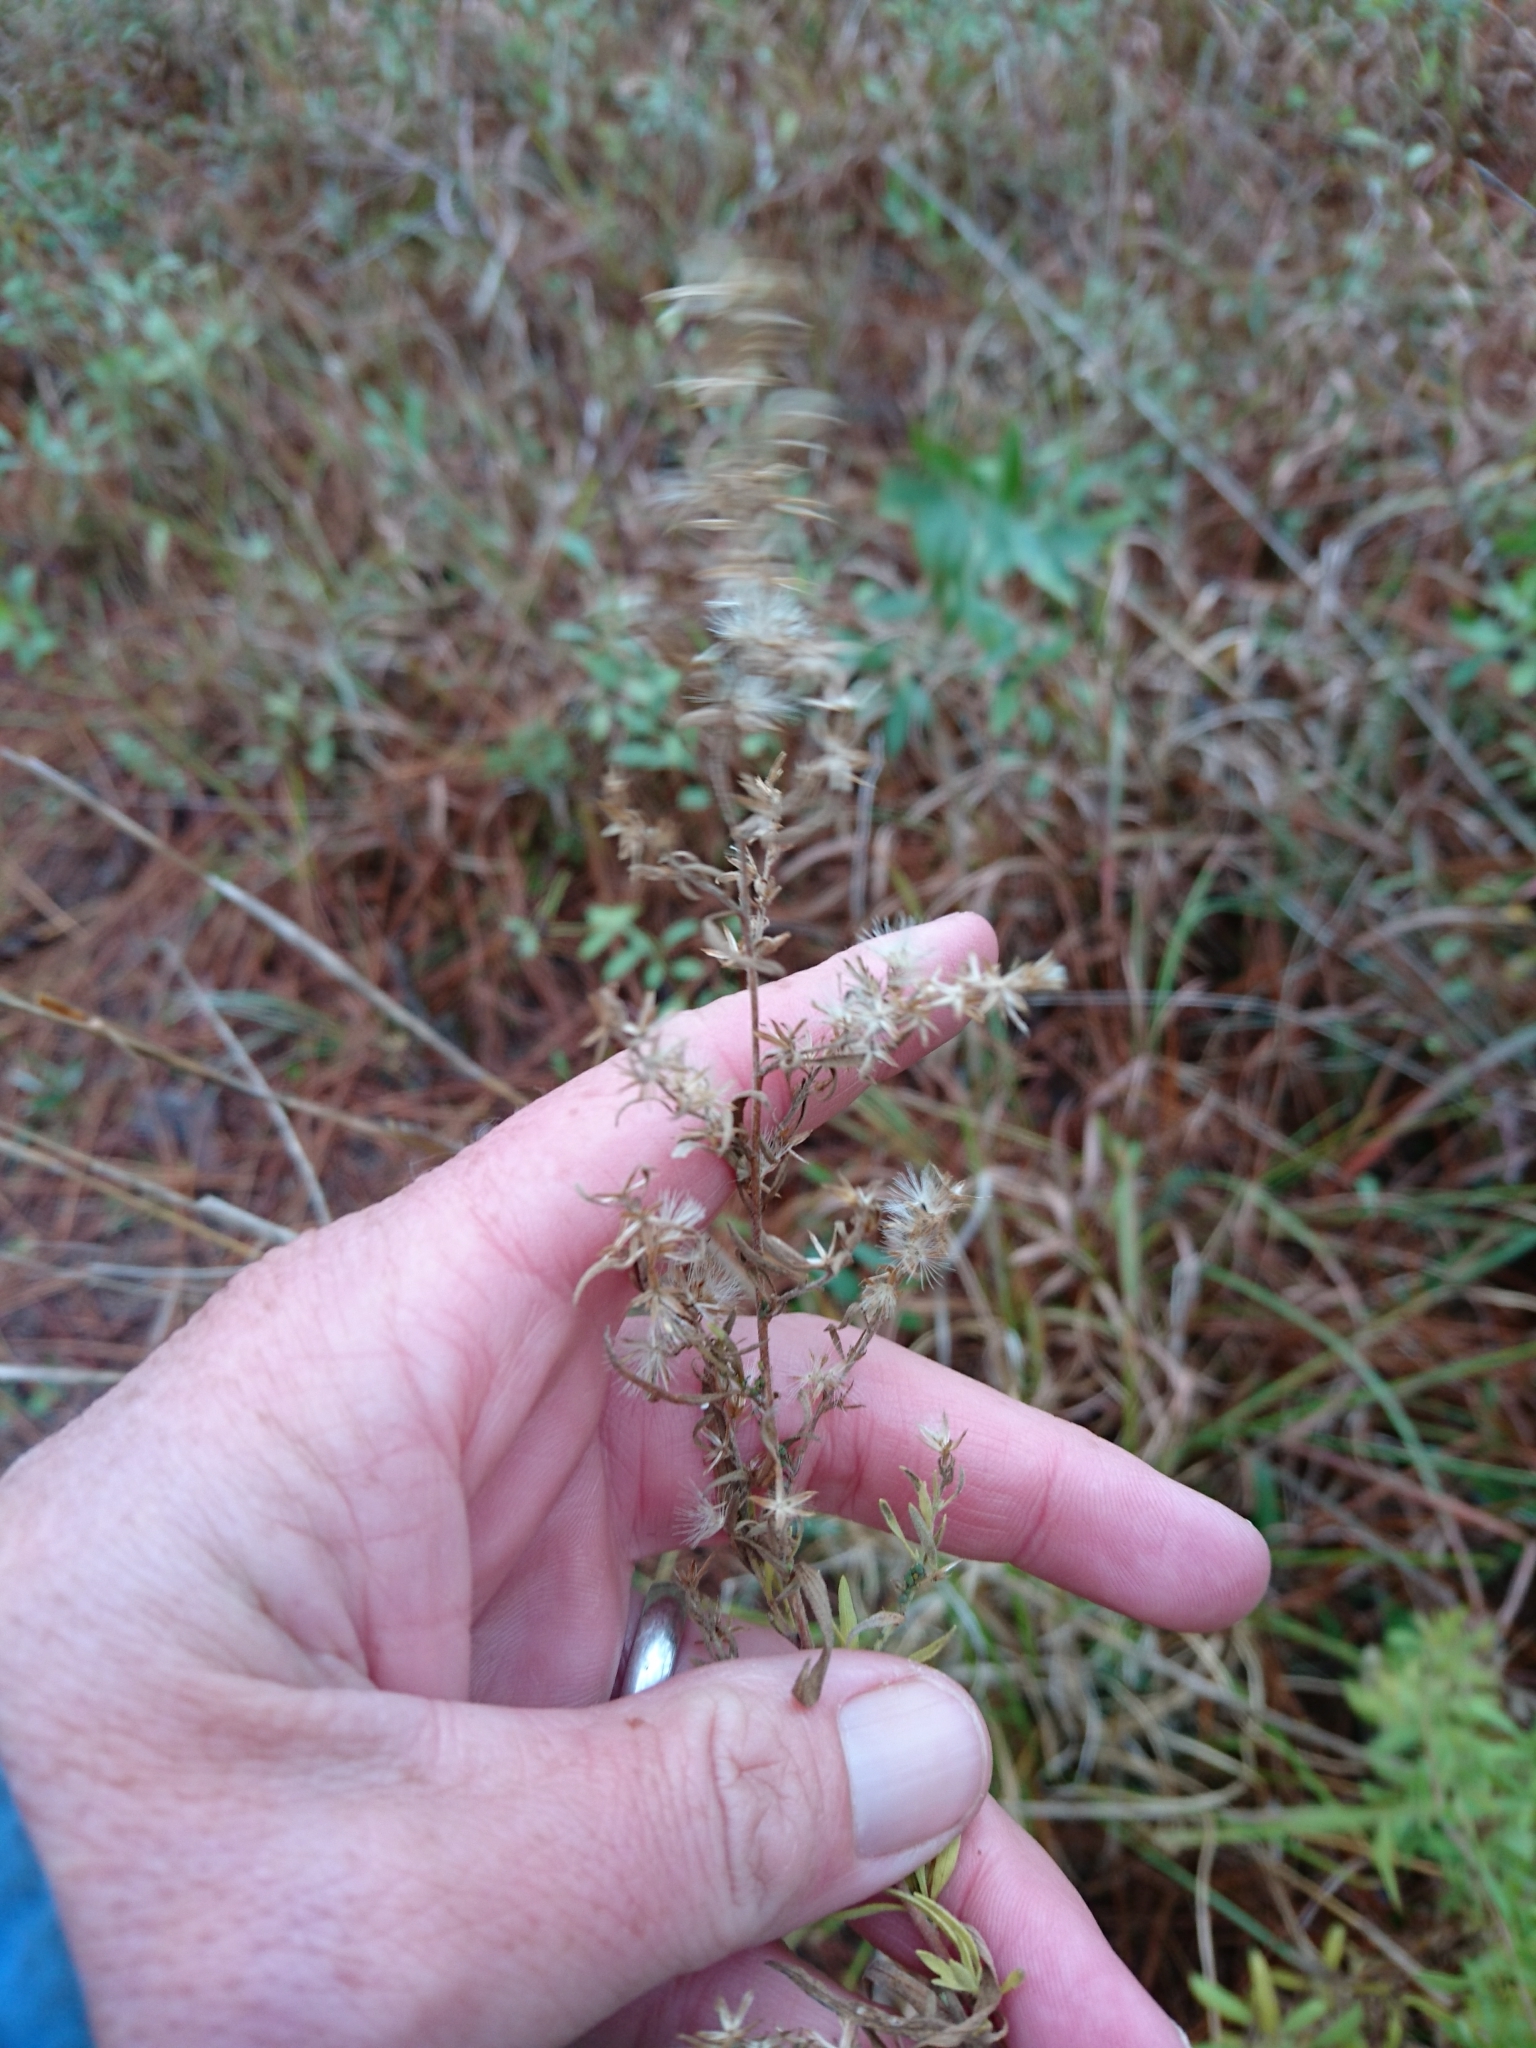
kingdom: Plantae
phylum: Tracheophyta
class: Magnoliopsida
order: Asterales
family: Asteraceae
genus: Eupatorium
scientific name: Eupatorium pinnatifidum
